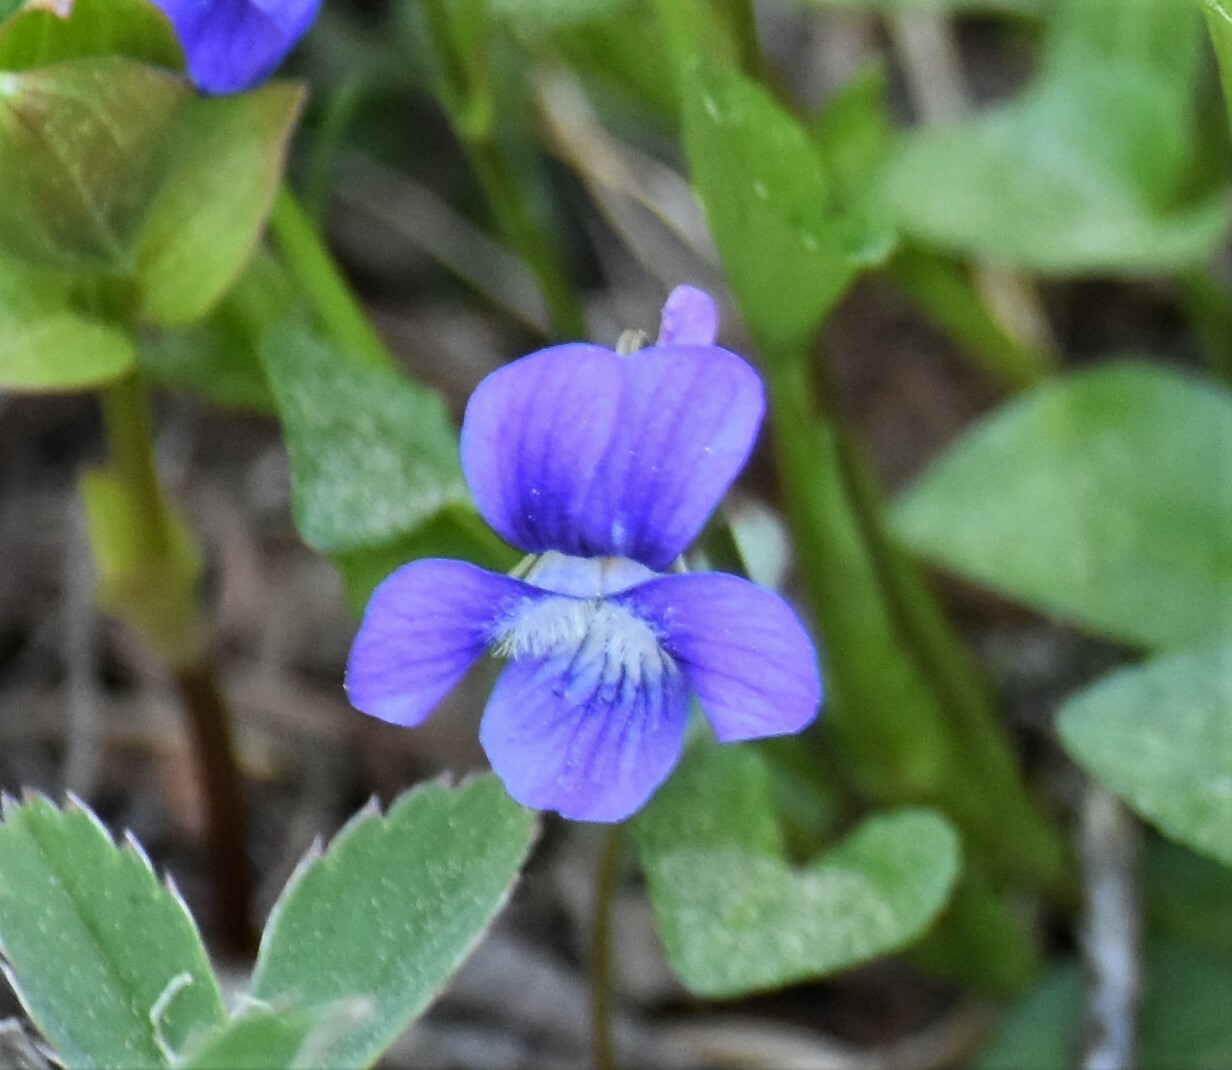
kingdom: Plantae
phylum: Tracheophyta
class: Magnoliopsida
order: Malpighiales
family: Violaceae
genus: Viola
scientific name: Viola adunca
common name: Sand violet
